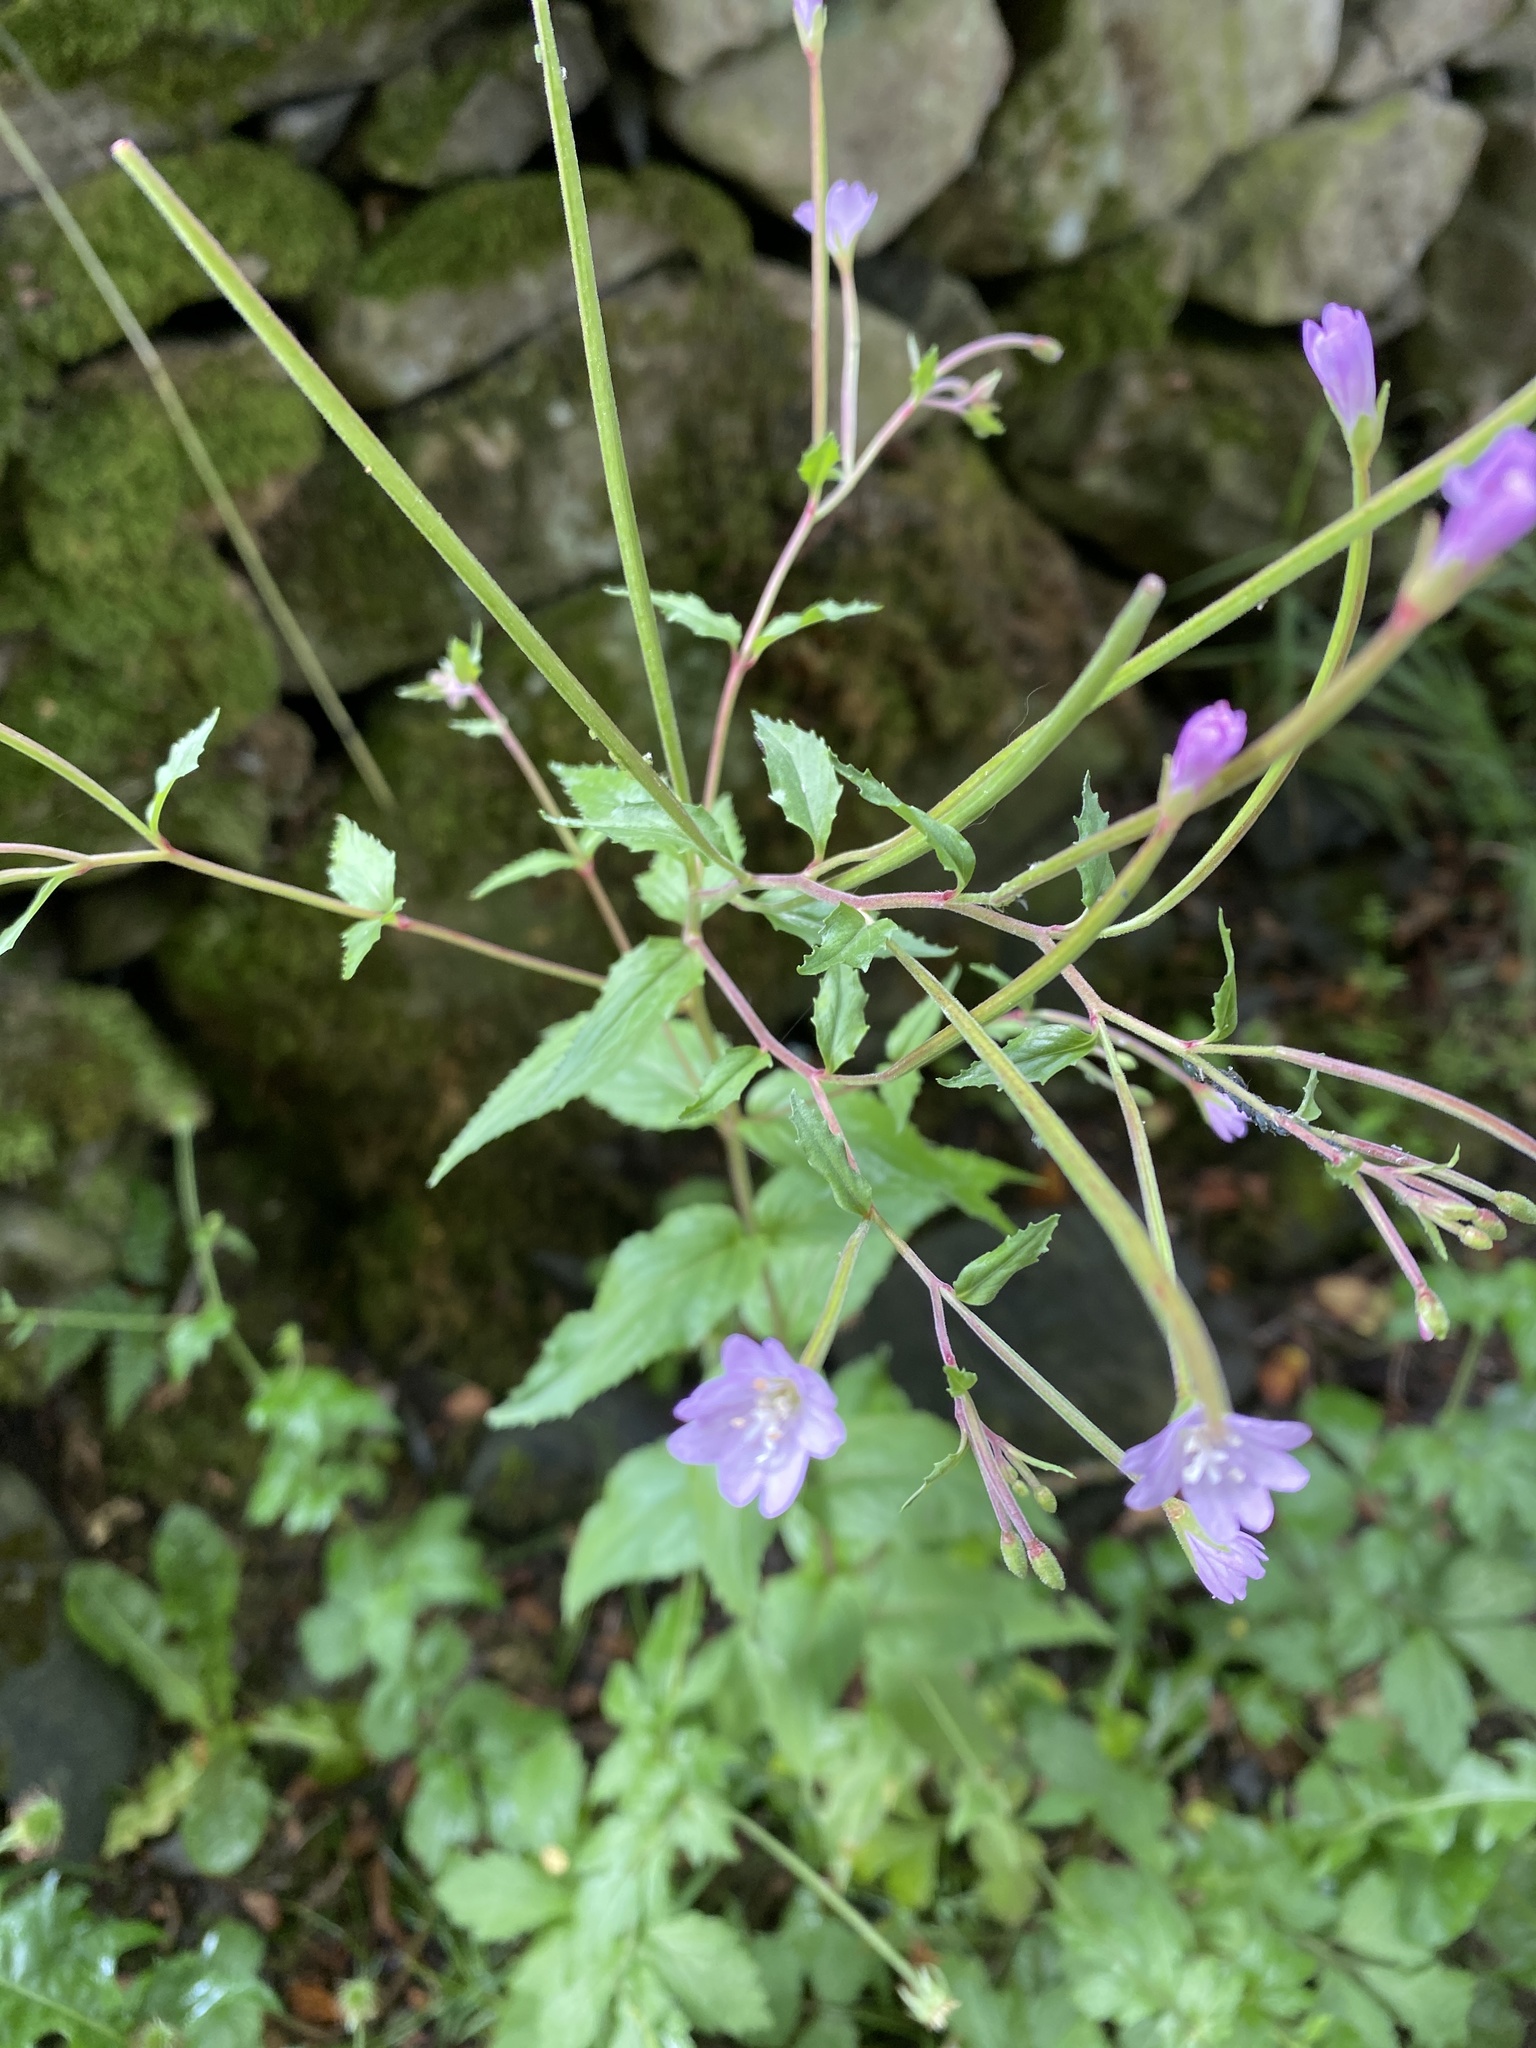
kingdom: Plantae
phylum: Tracheophyta
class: Magnoliopsida
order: Myrtales
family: Onagraceae
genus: Epilobium
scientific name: Epilobium montanum
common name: Broad-leaved willowherb
